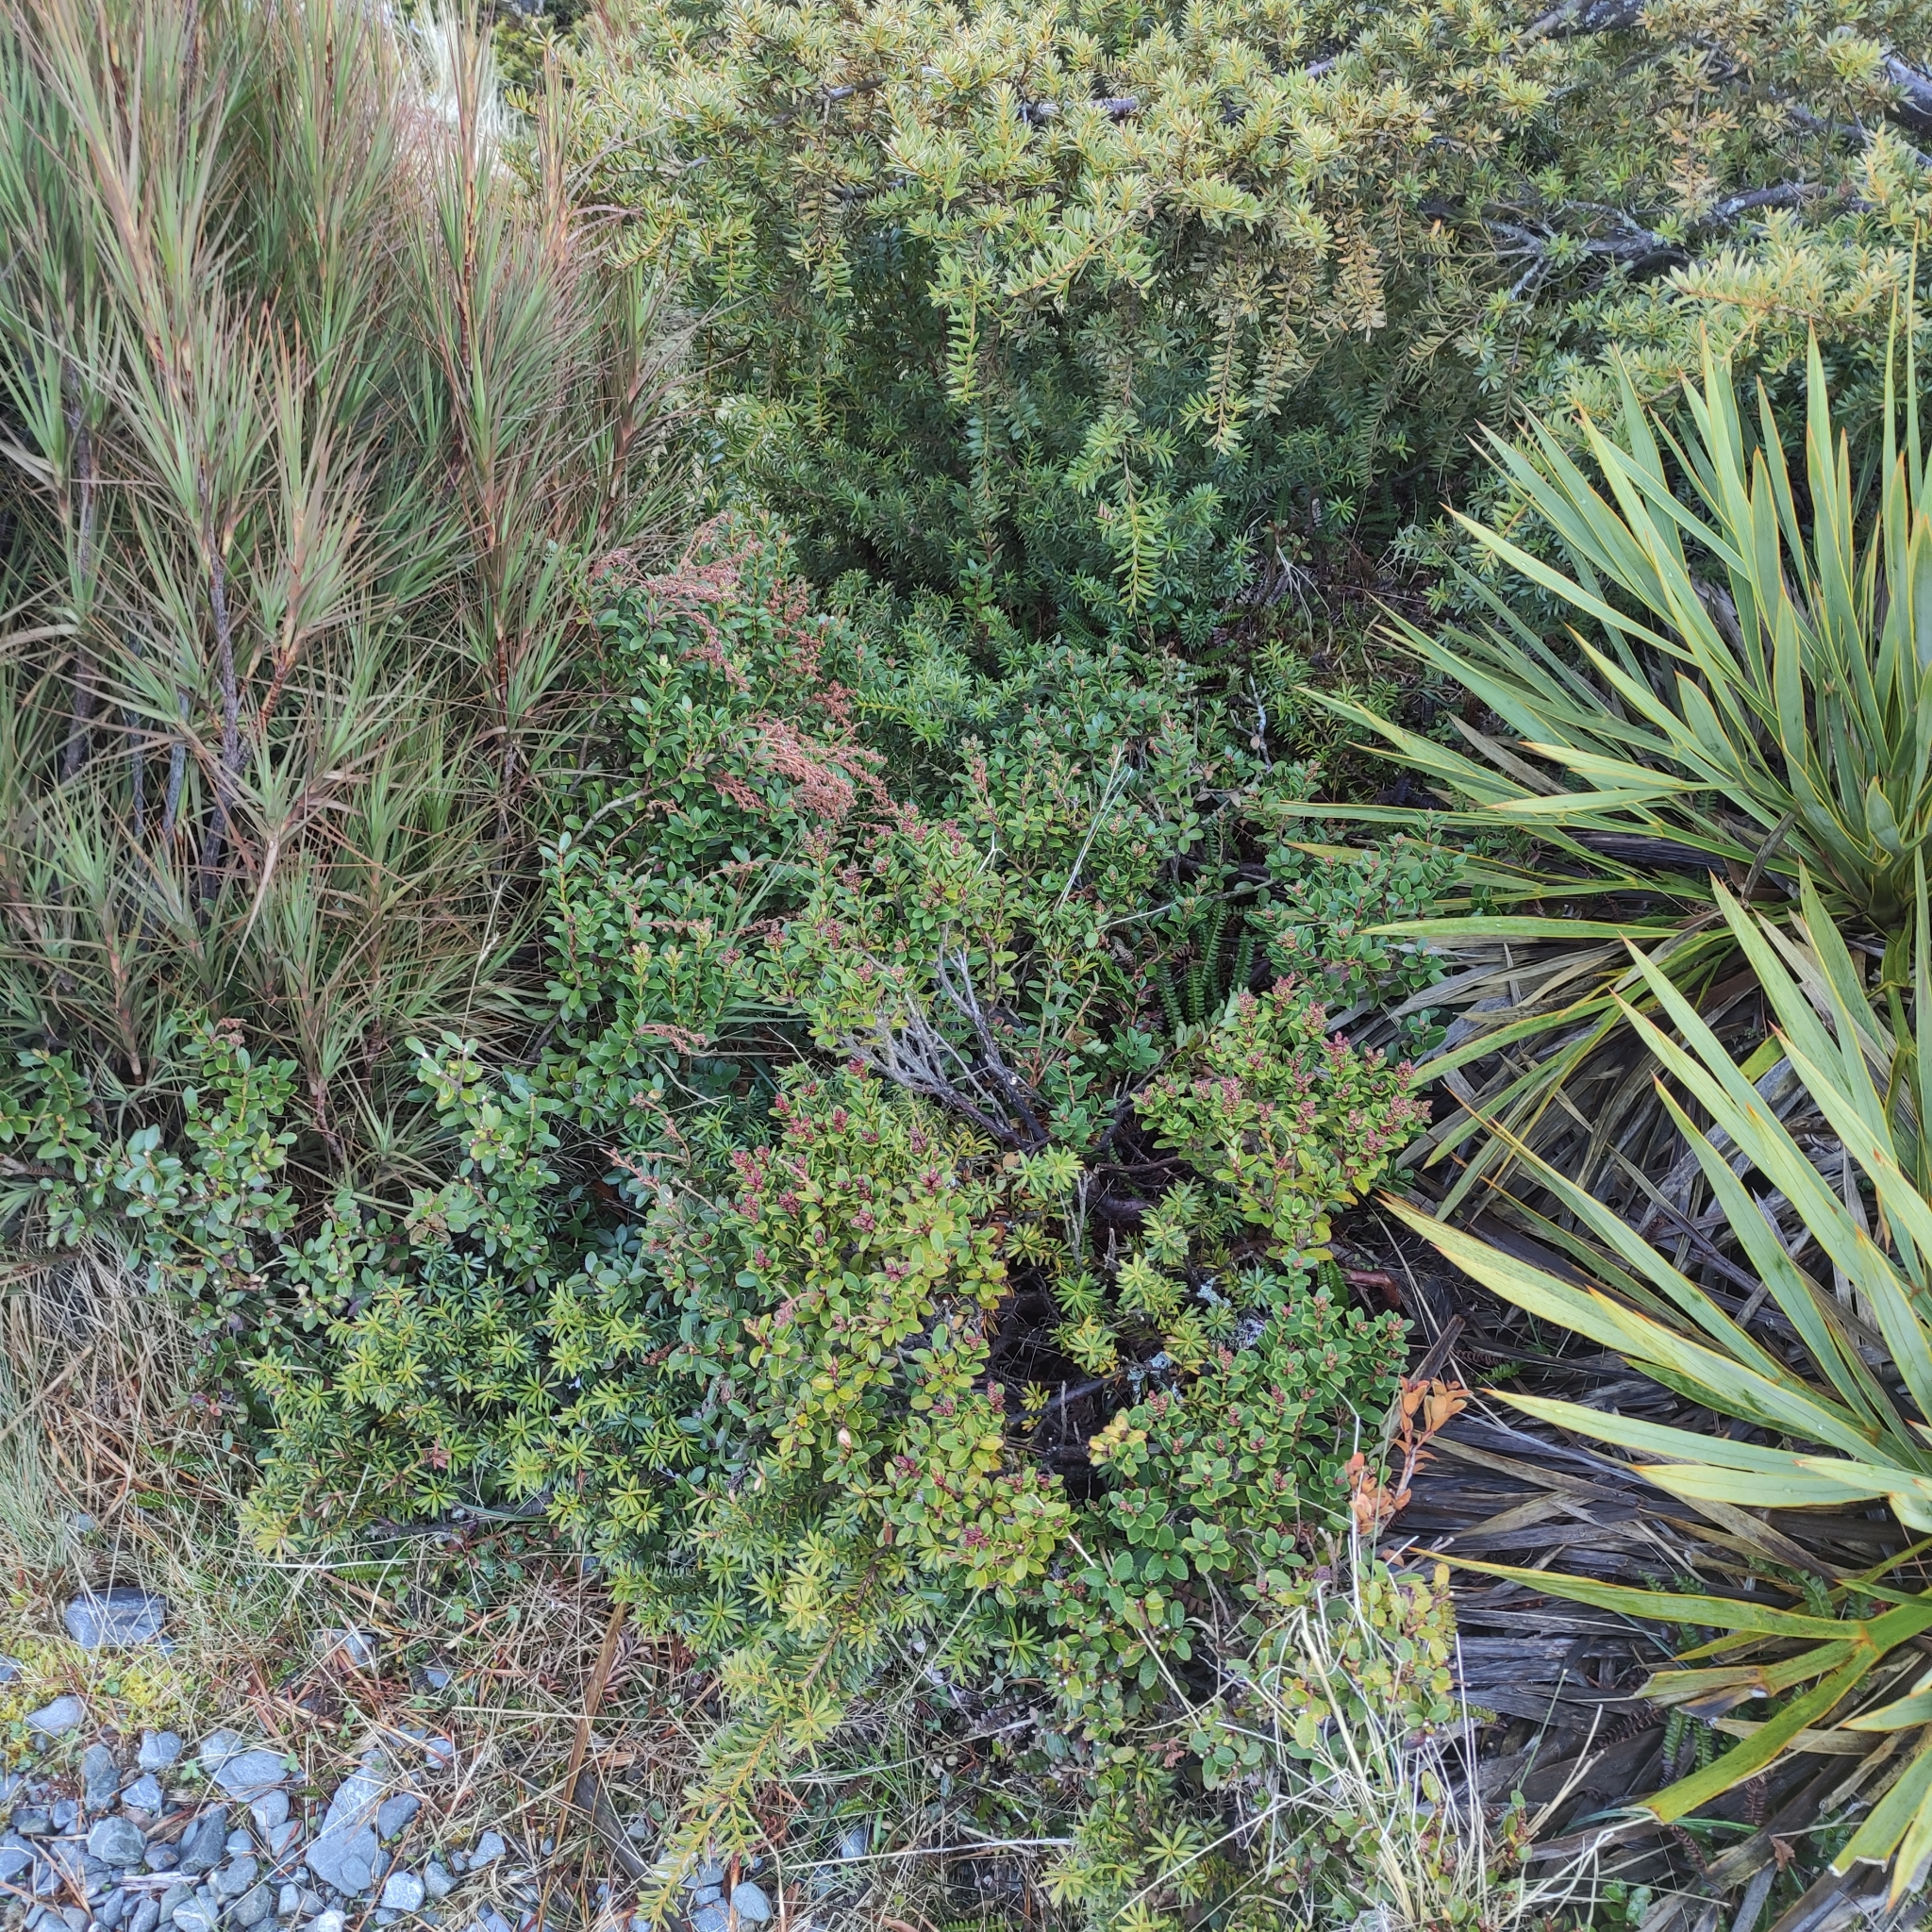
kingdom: Plantae
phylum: Tracheophyta
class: Magnoliopsida
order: Ericales
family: Ericaceae
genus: Gaultheria
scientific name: Gaultheria crassa
